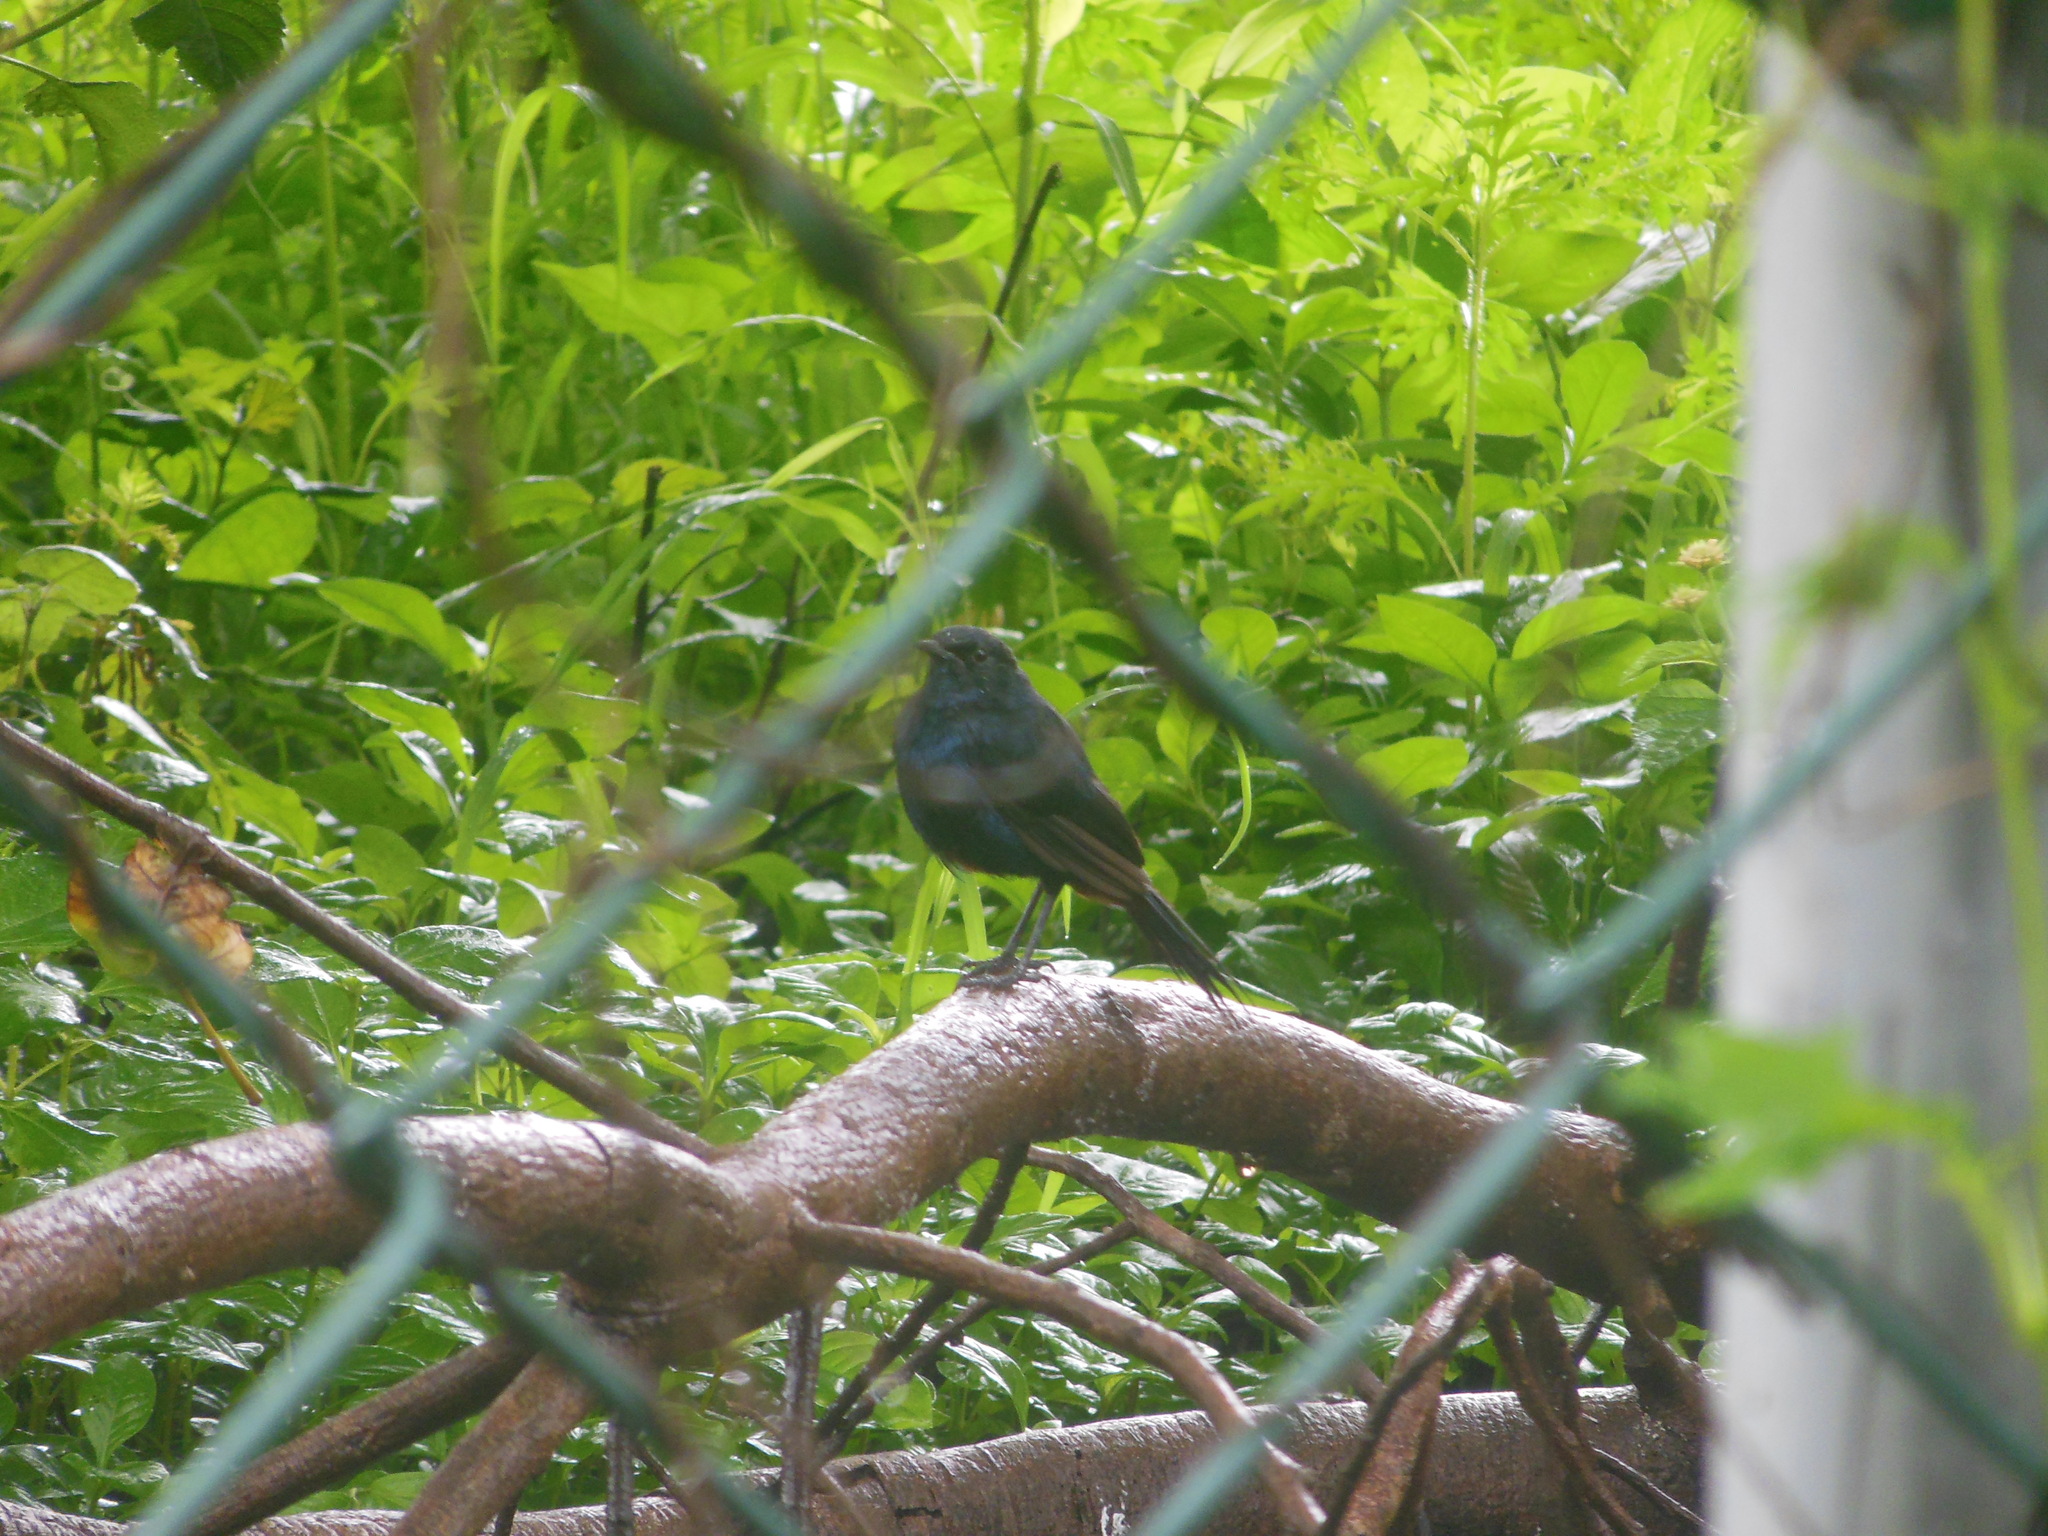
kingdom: Animalia
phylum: Chordata
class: Aves
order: Passeriformes
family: Muscicapidae
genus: Saxicoloides
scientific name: Saxicoloides fulicatus
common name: Indian robin
